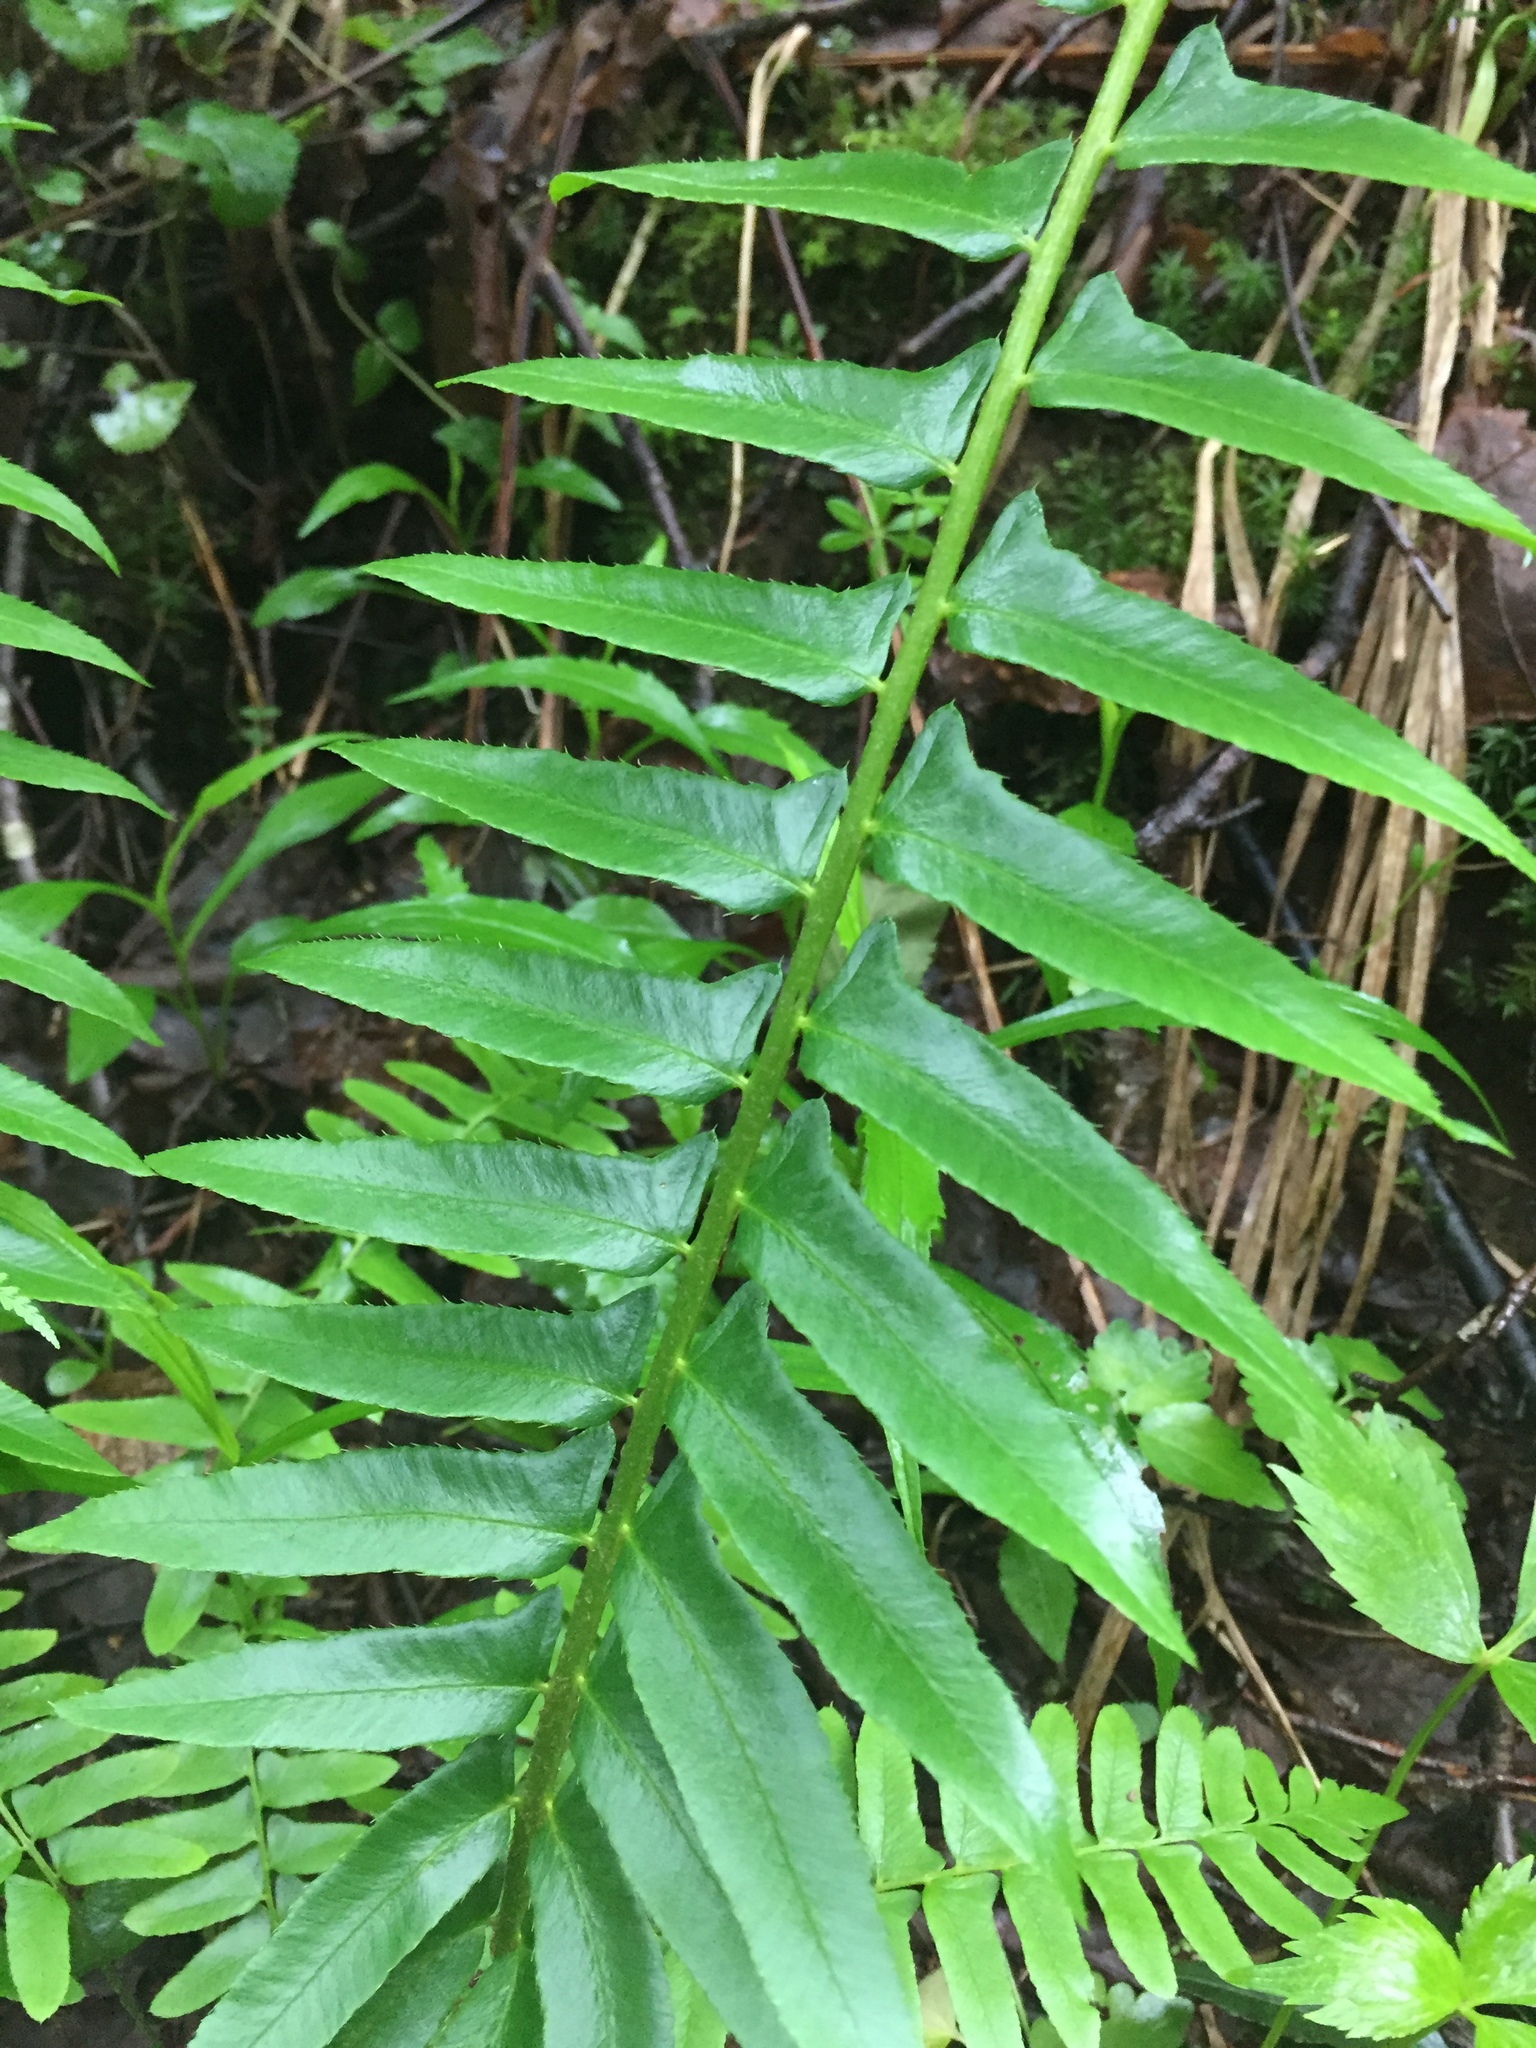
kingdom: Plantae
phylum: Tracheophyta
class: Polypodiopsida
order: Polypodiales
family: Dryopteridaceae
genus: Polystichum
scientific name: Polystichum acrostichoides
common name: Christmas fern
